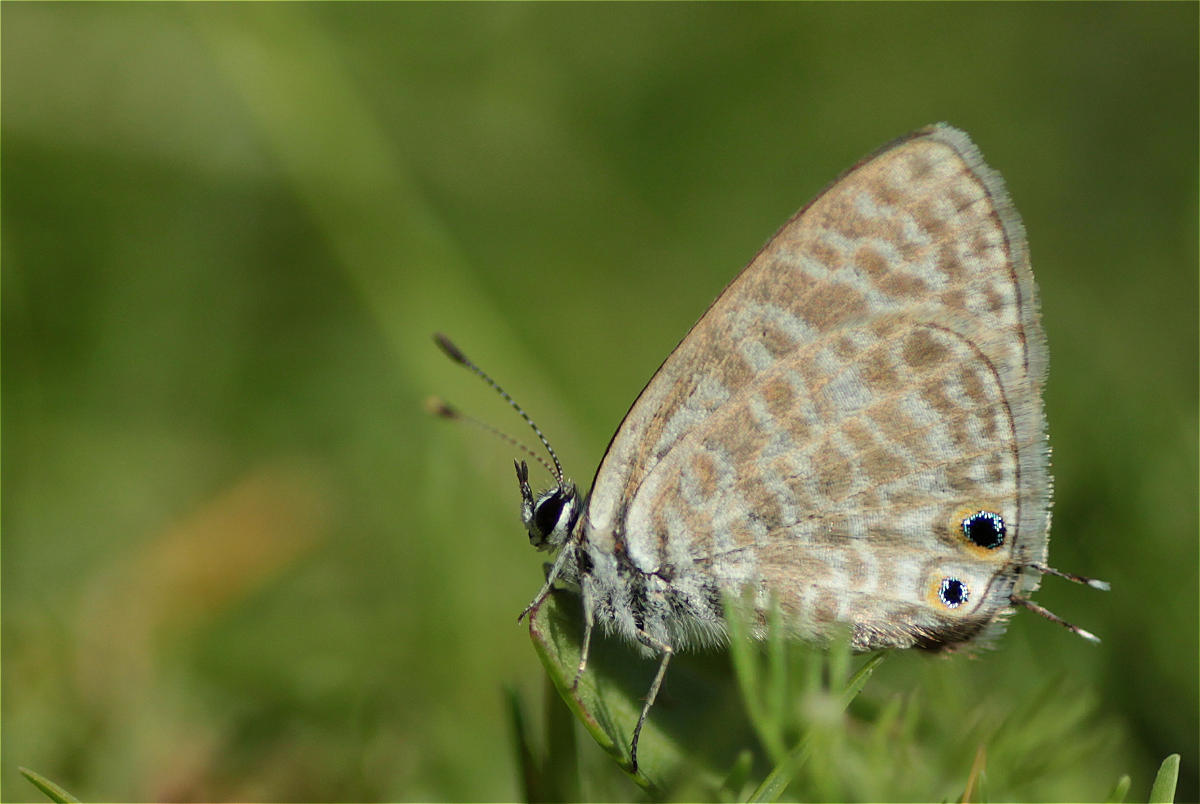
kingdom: Animalia
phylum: Arthropoda
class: Insecta
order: Lepidoptera
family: Lycaenidae
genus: Leptotes
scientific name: Leptotes pirithous
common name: Lang's short-tailed blue
